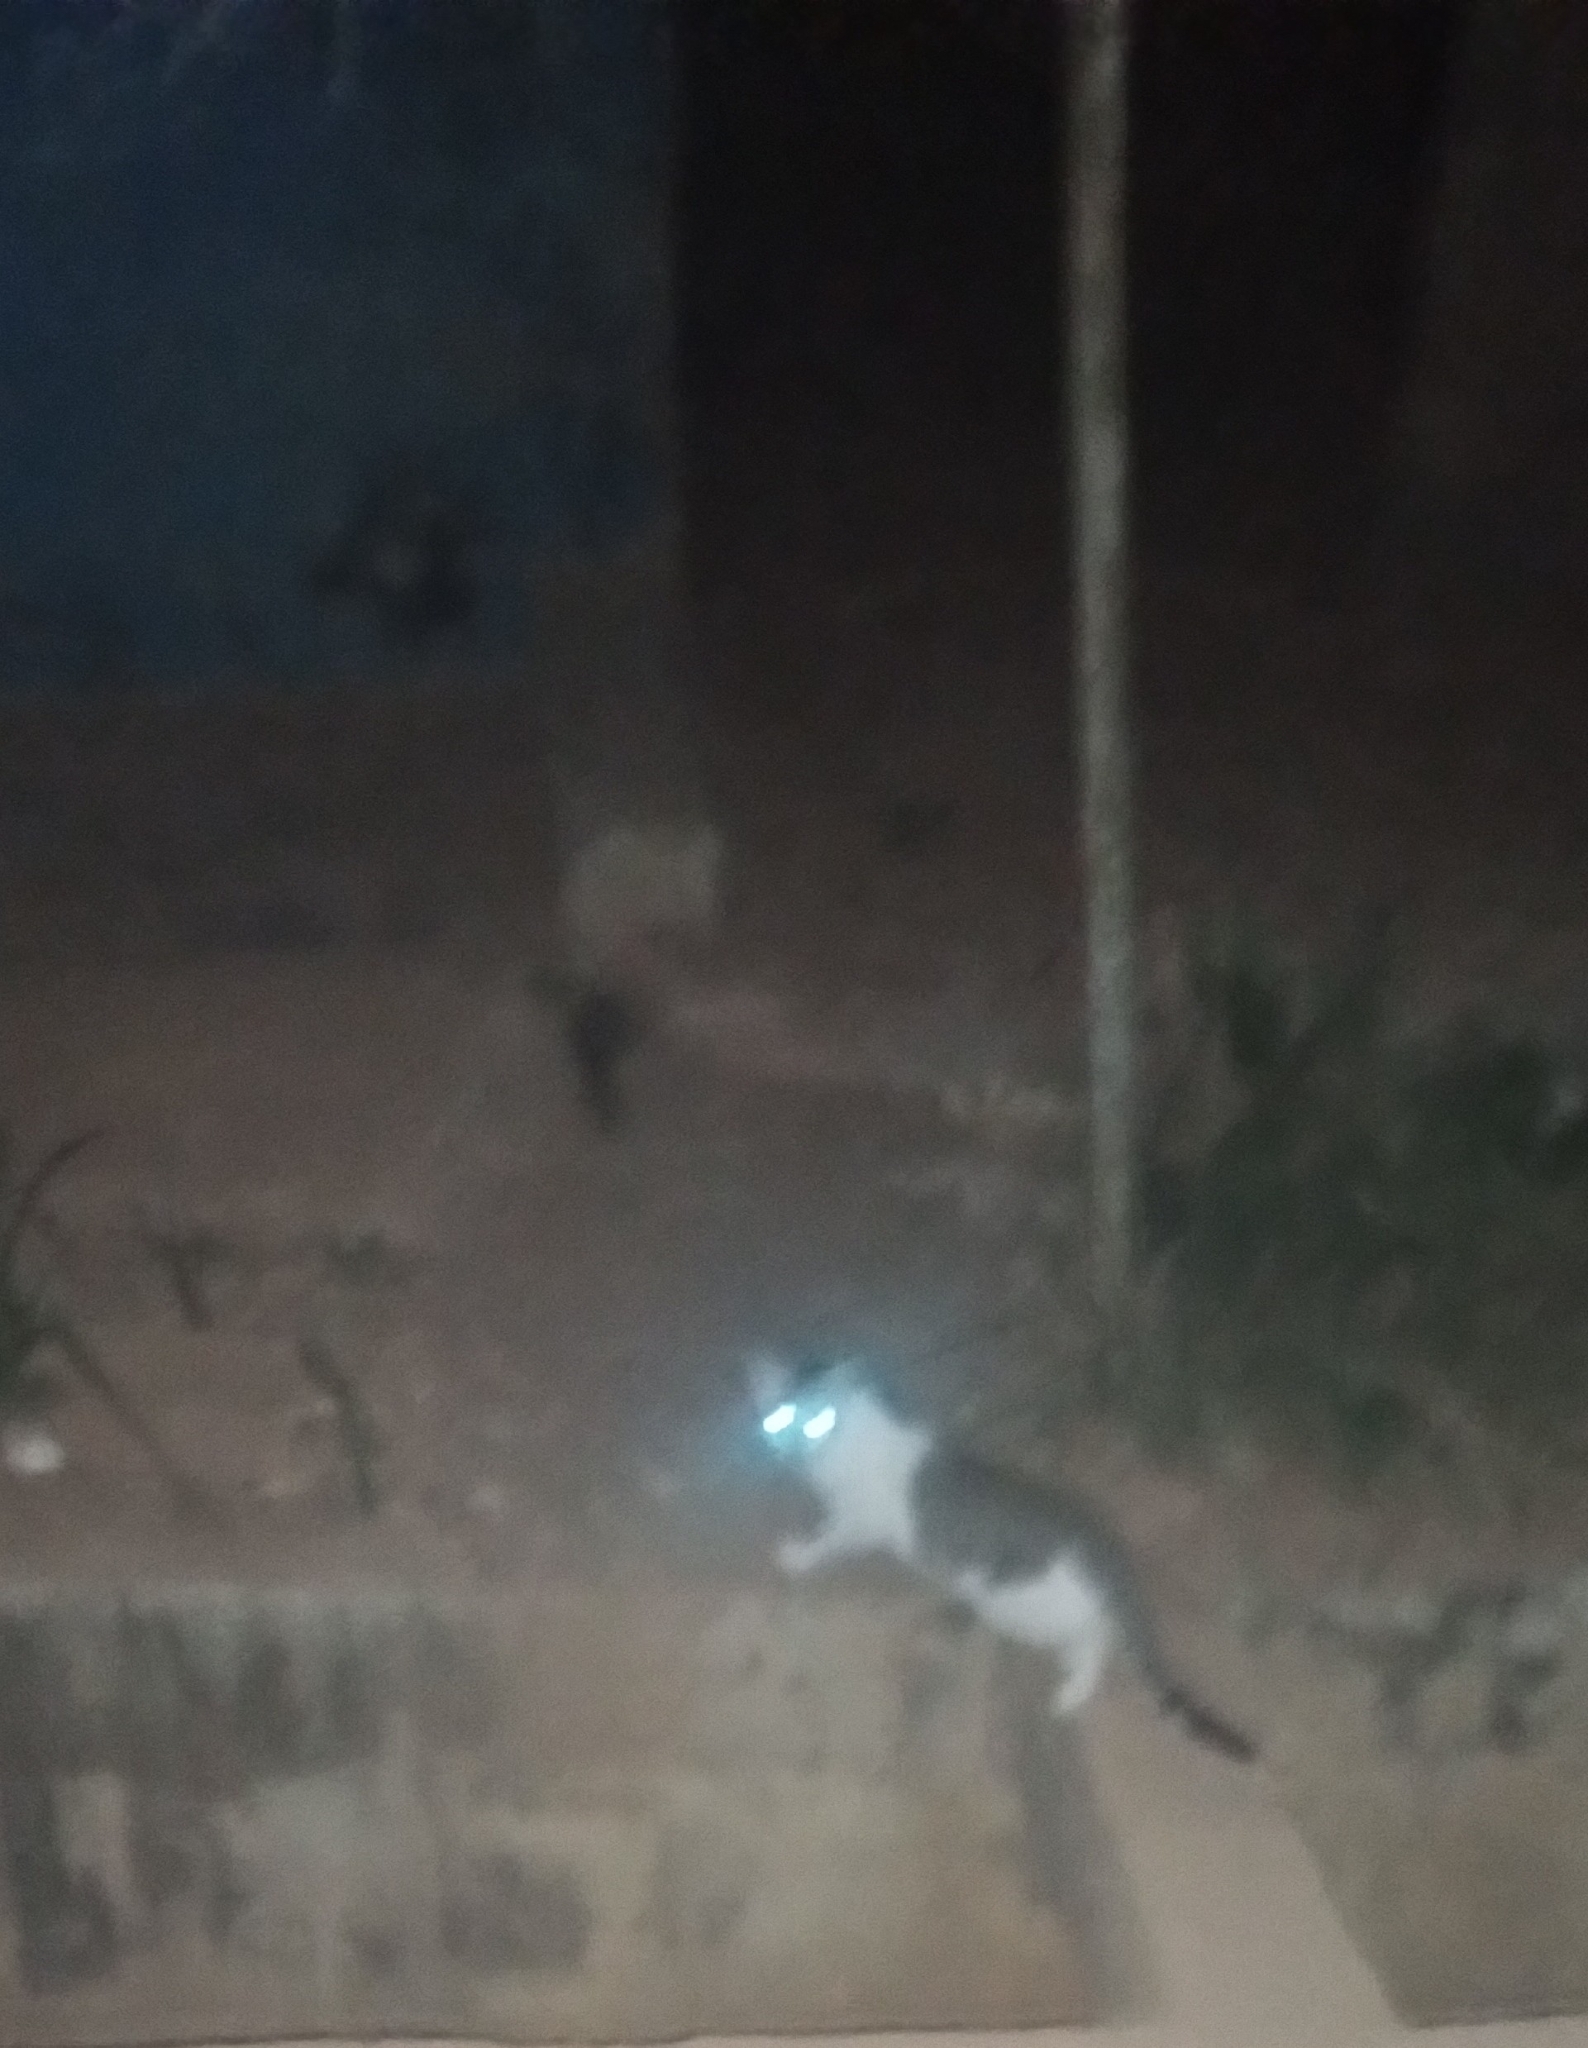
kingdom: Animalia
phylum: Chordata
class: Mammalia
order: Carnivora
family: Felidae
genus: Felis
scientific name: Felis catus
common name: Domestic cat
